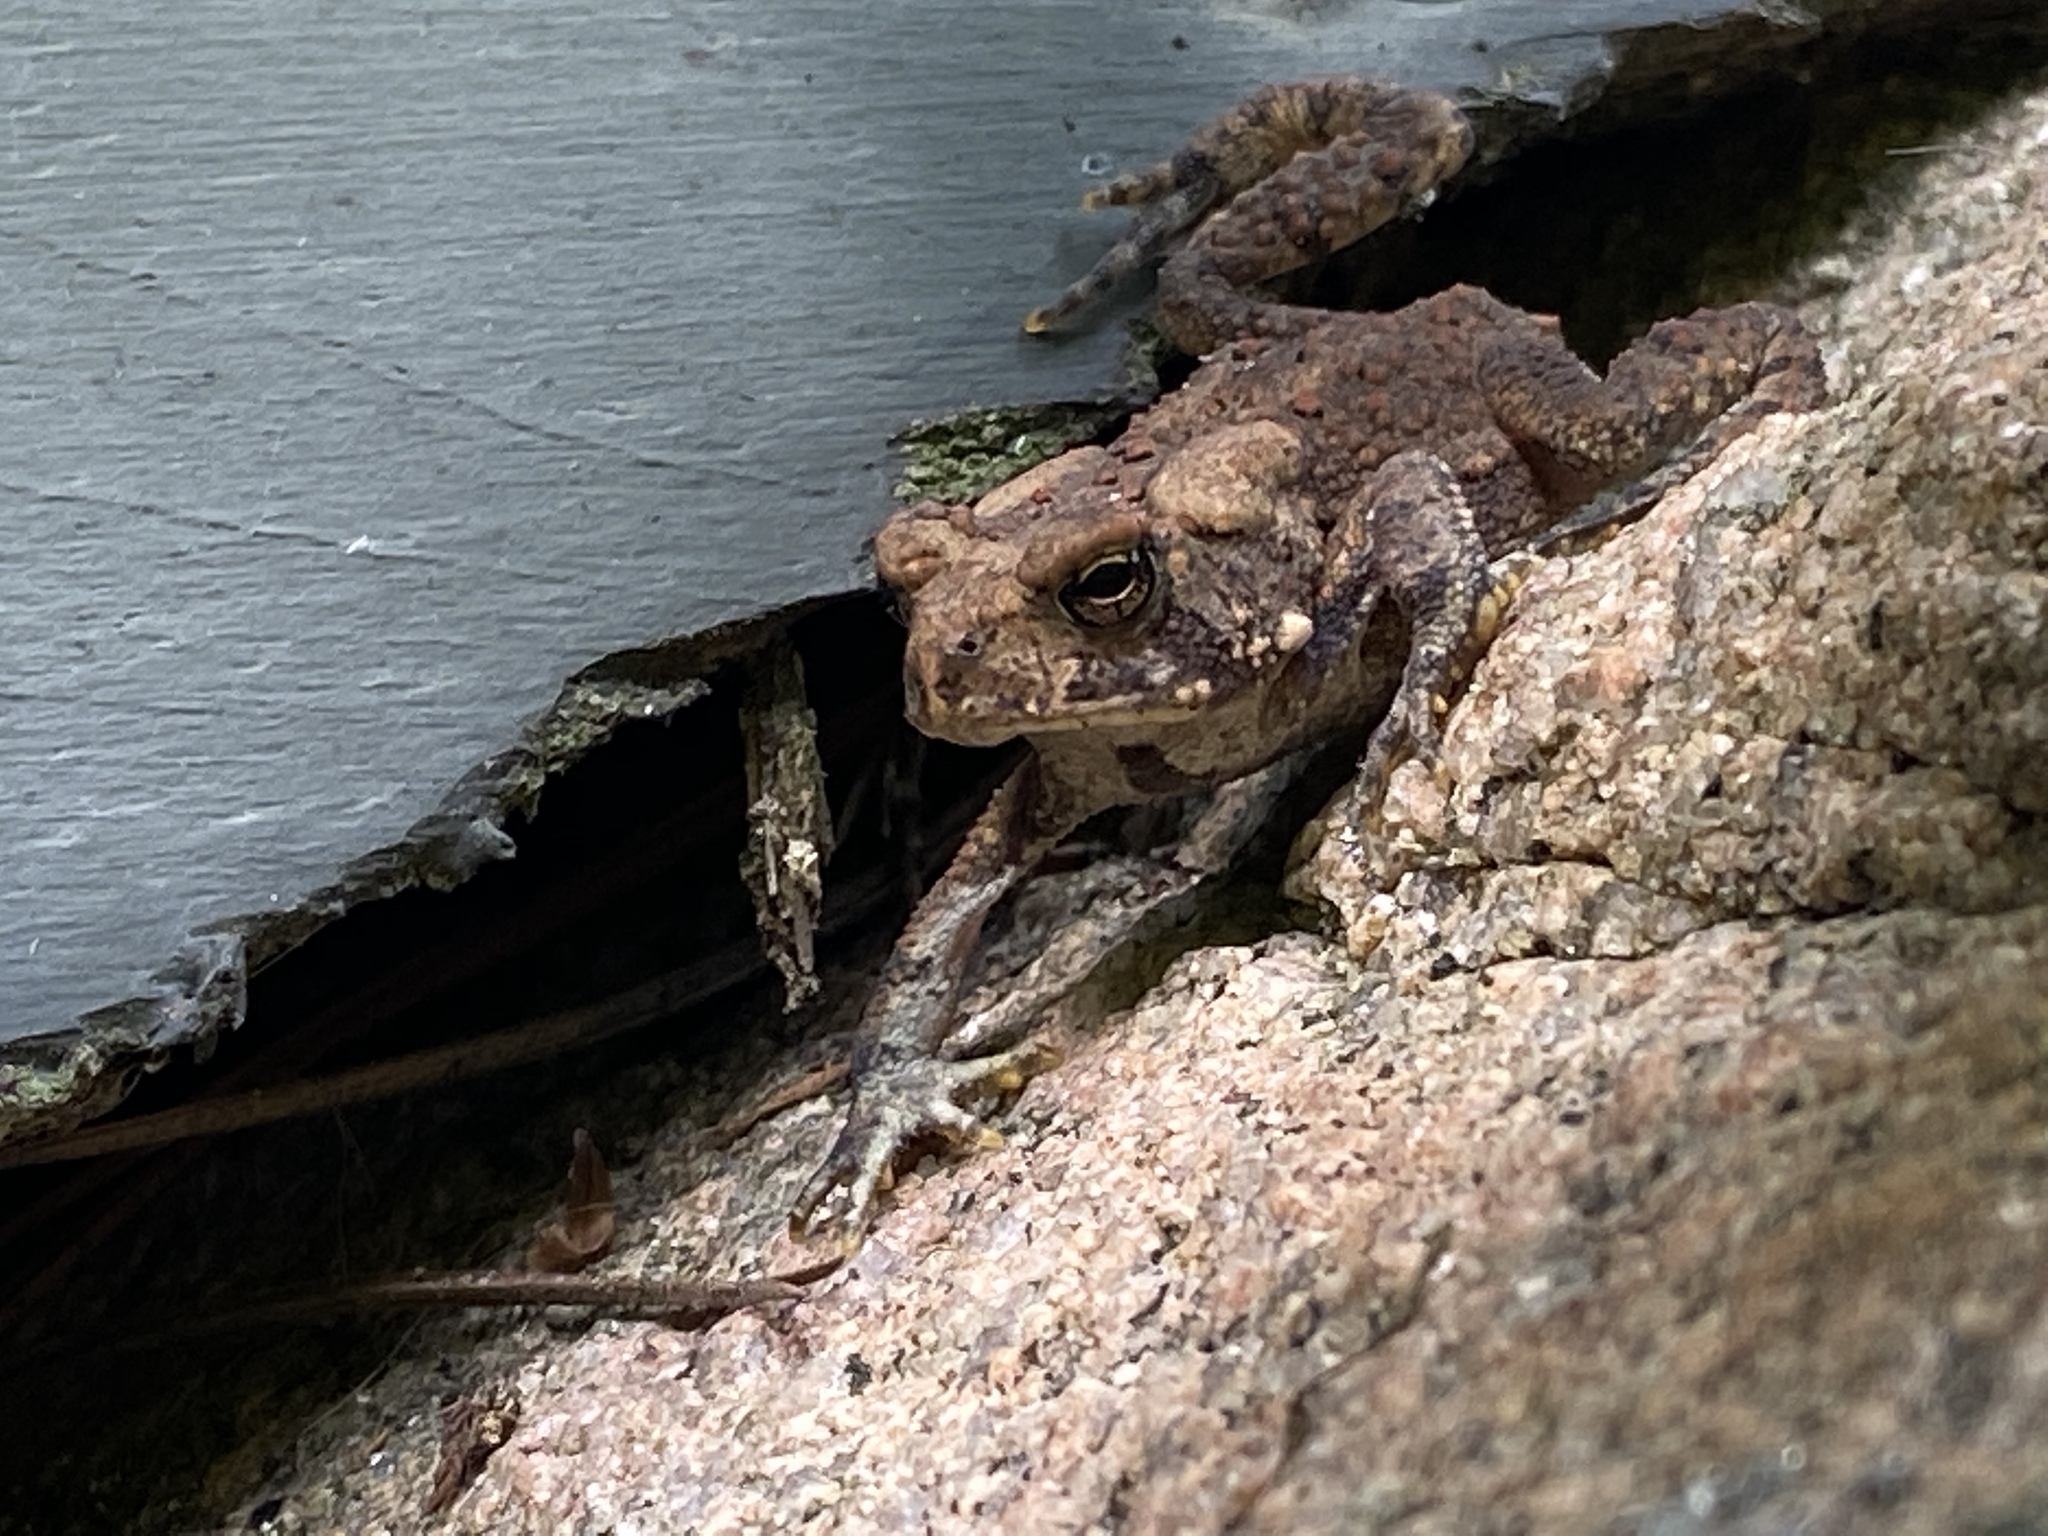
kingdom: Animalia
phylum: Chordata
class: Amphibia
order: Anura
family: Bufonidae
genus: Anaxyrus
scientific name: Anaxyrus americanus
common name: American toad
